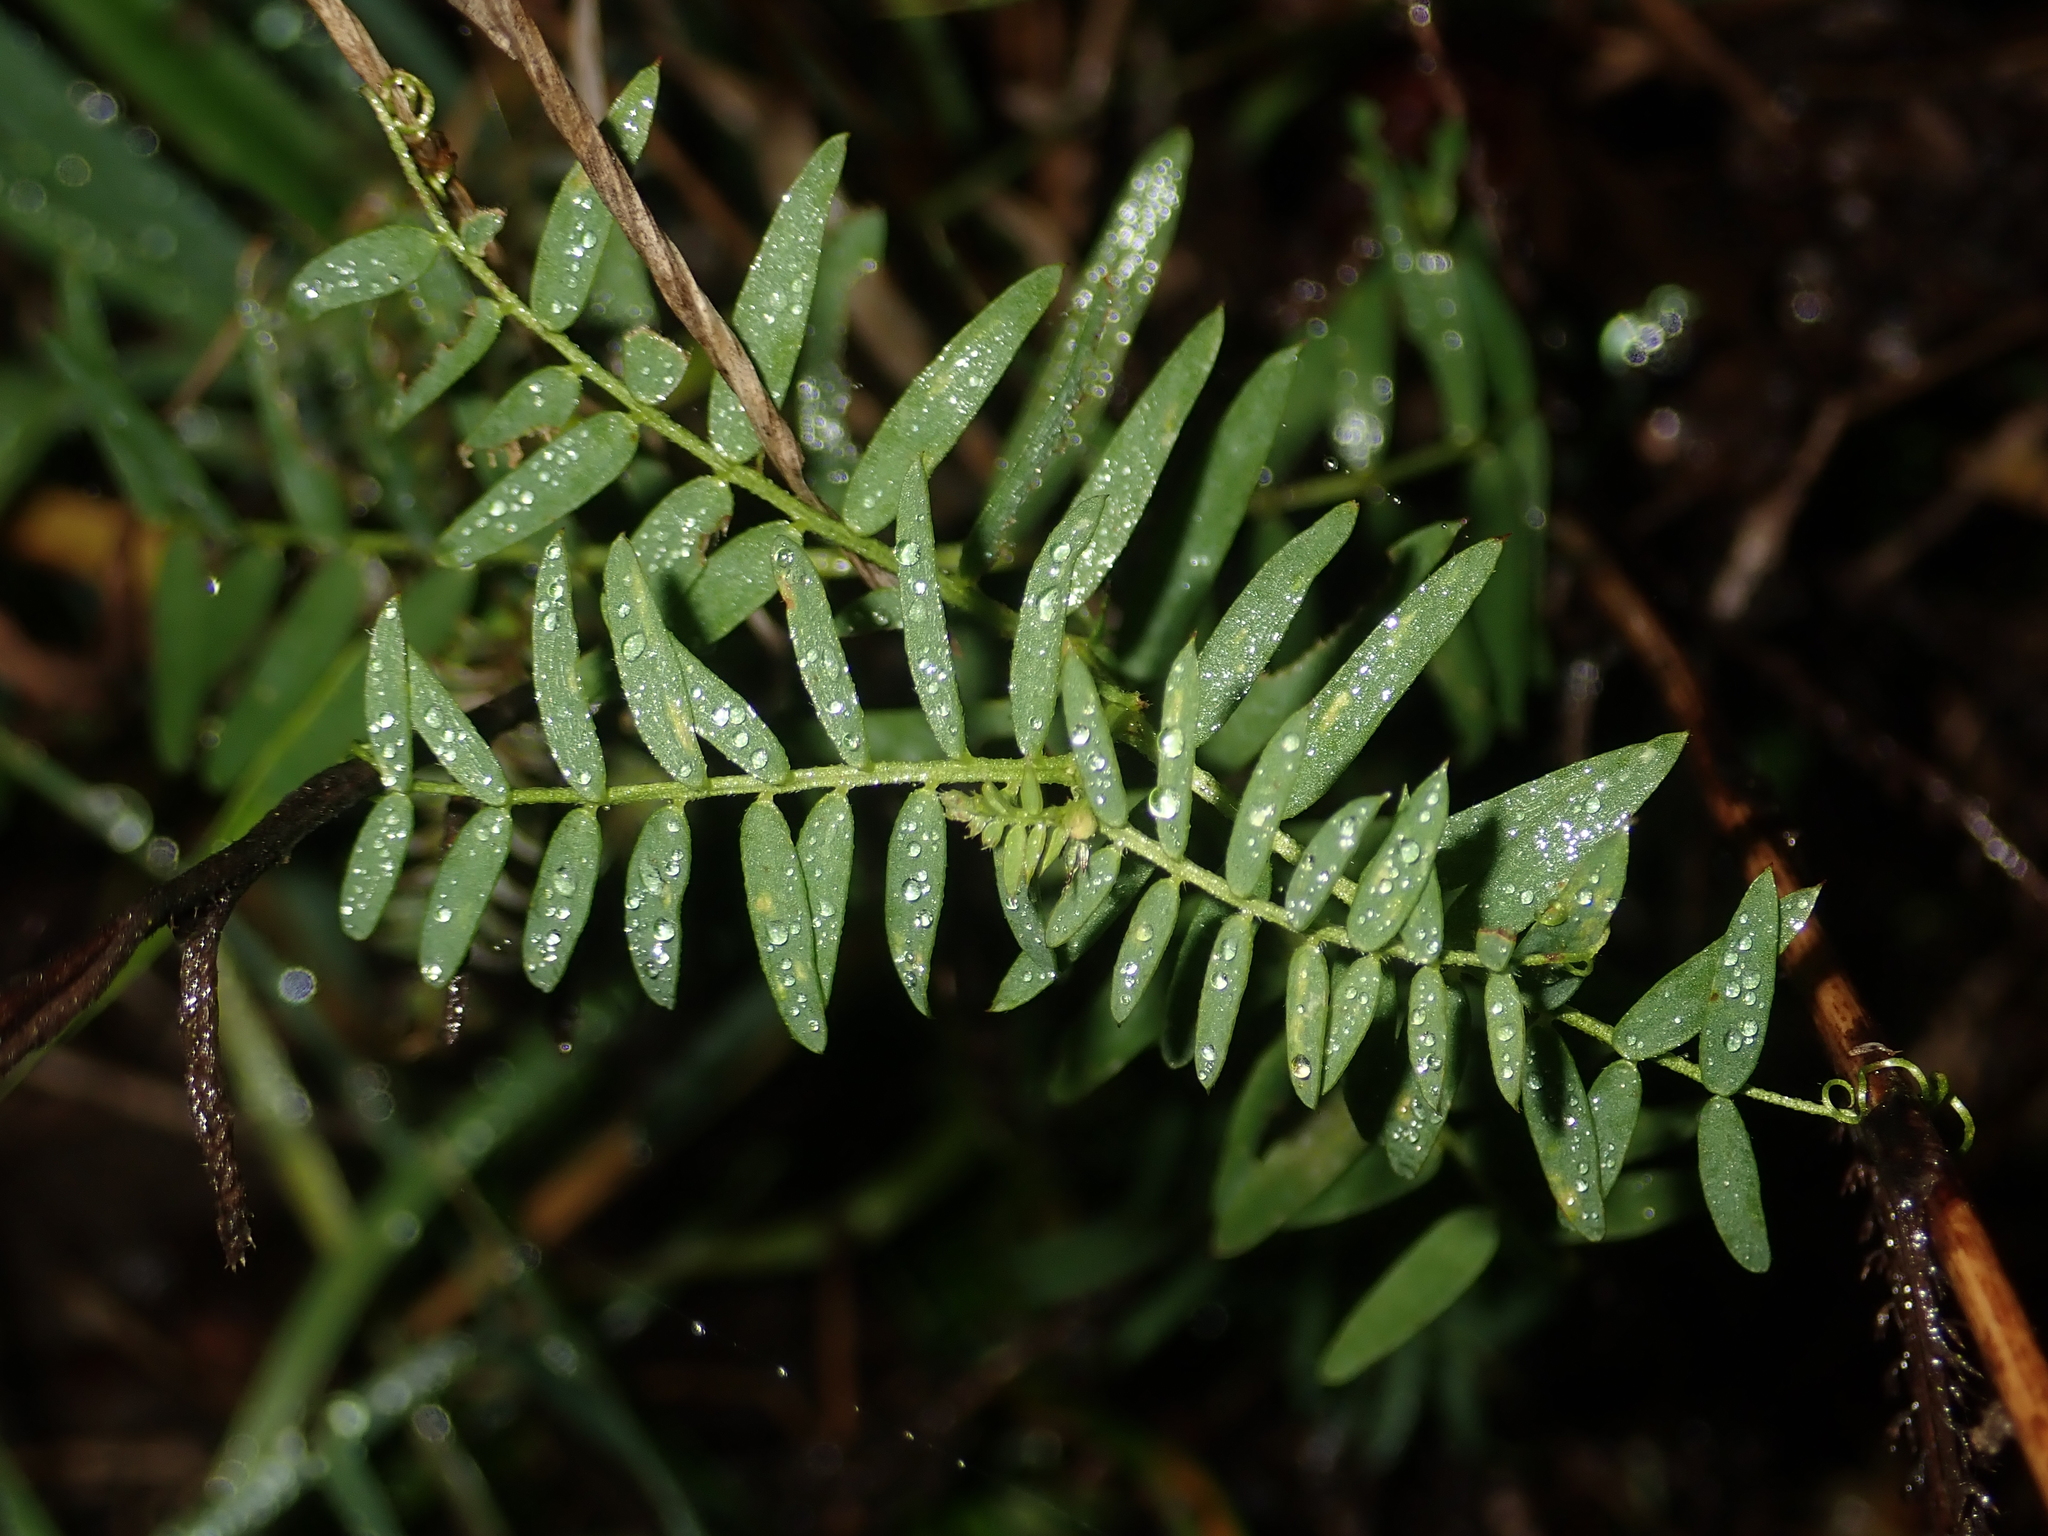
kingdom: Plantae
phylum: Tracheophyta
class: Magnoliopsida
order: Fabales
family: Fabaceae
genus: Vicia
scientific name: Vicia cracca
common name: Bird vetch
